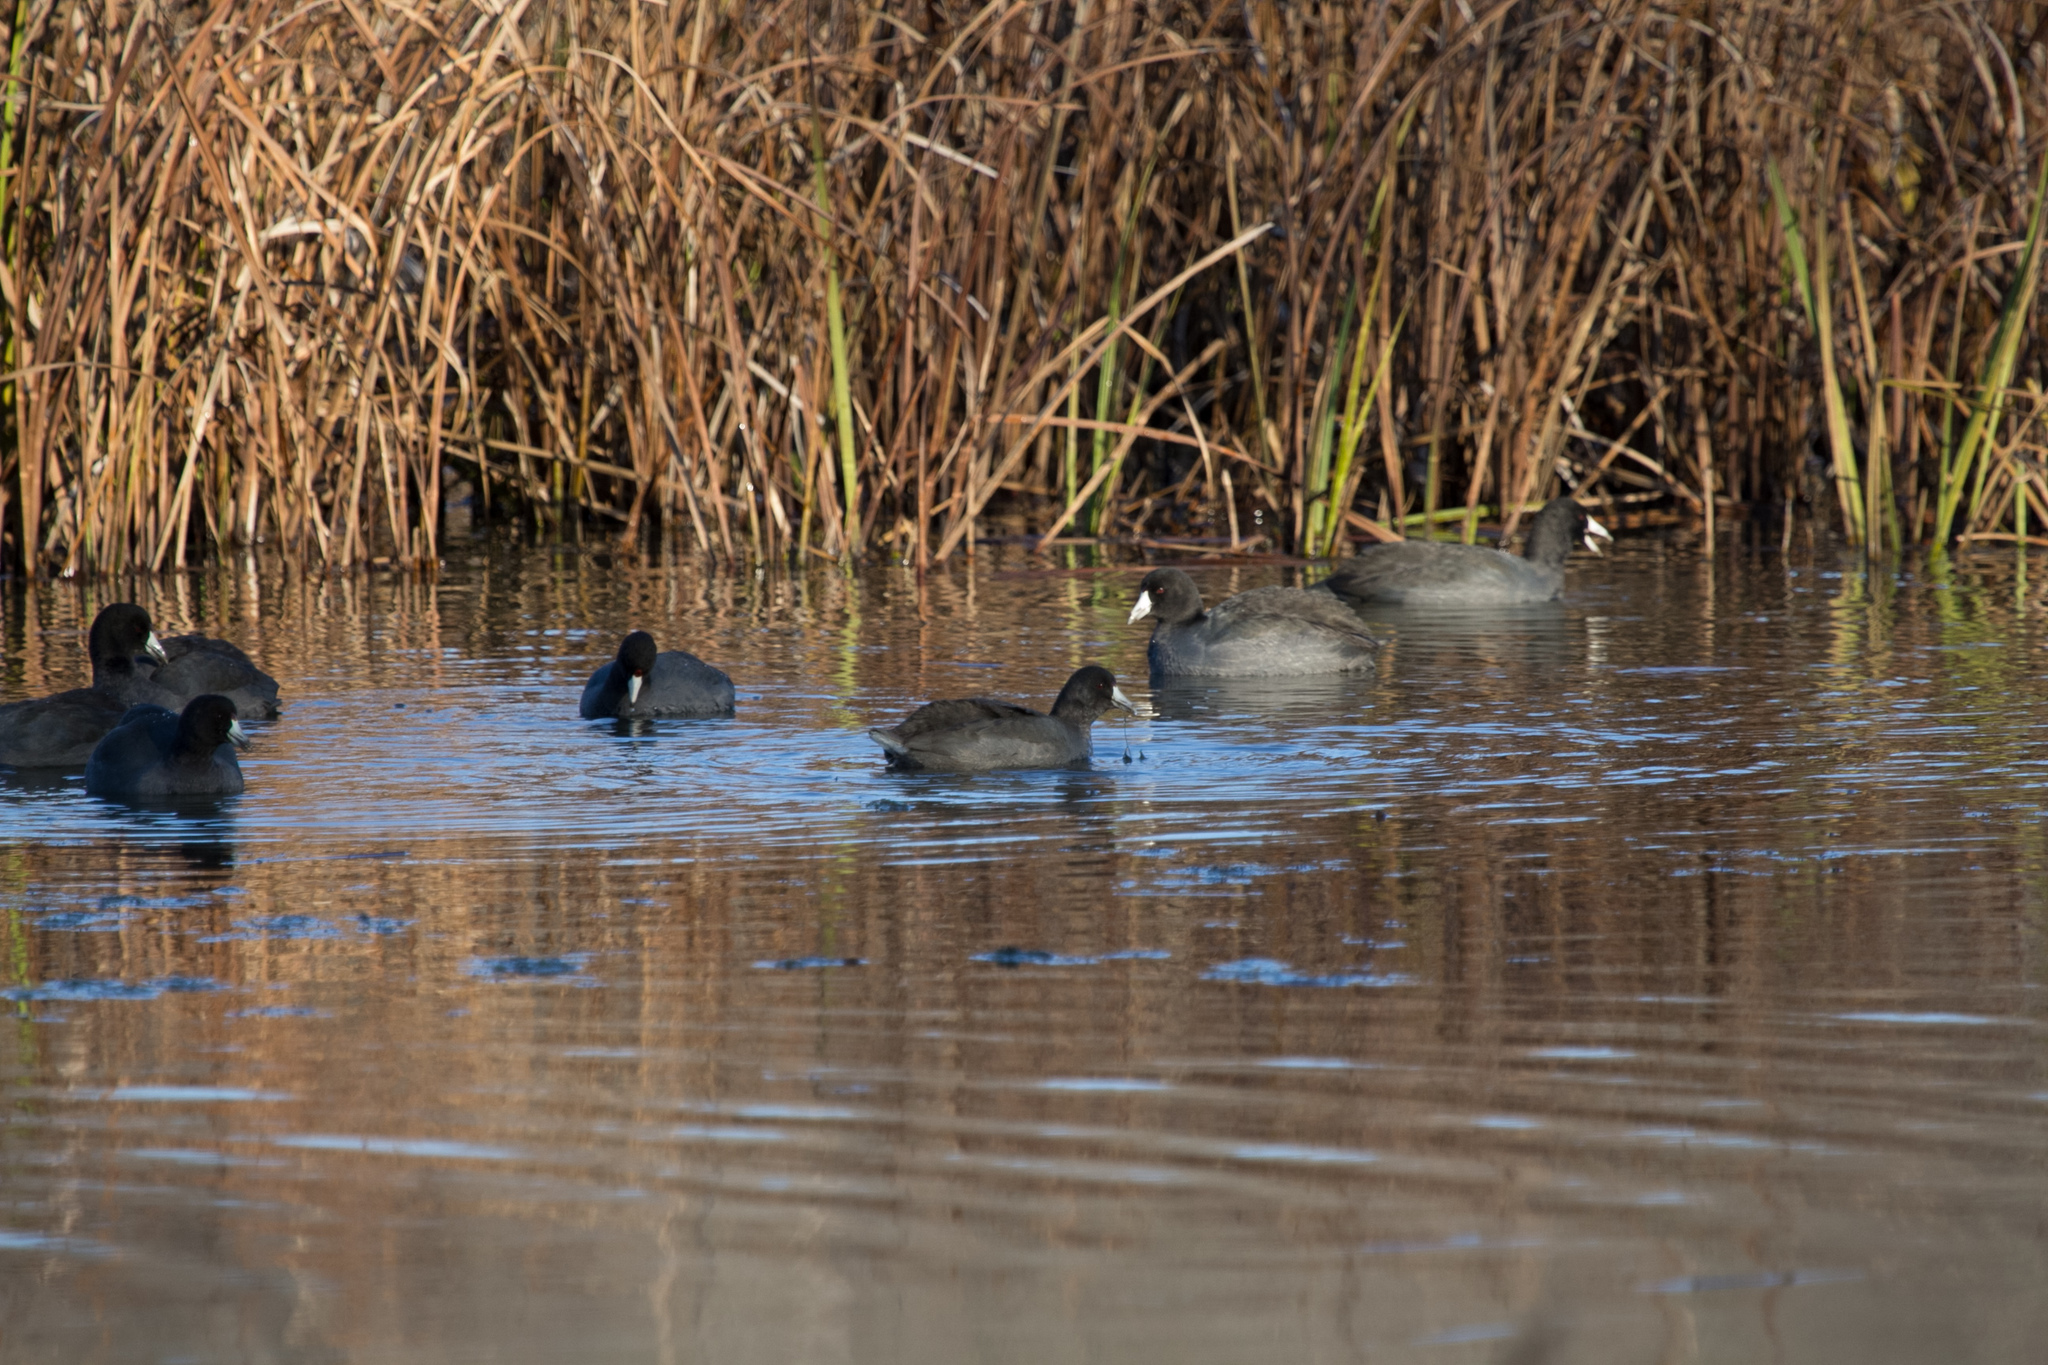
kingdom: Animalia
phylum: Chordata
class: Aves
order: Gruiformes
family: Rallidae
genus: Fulica
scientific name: Fulica americana
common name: American coot
